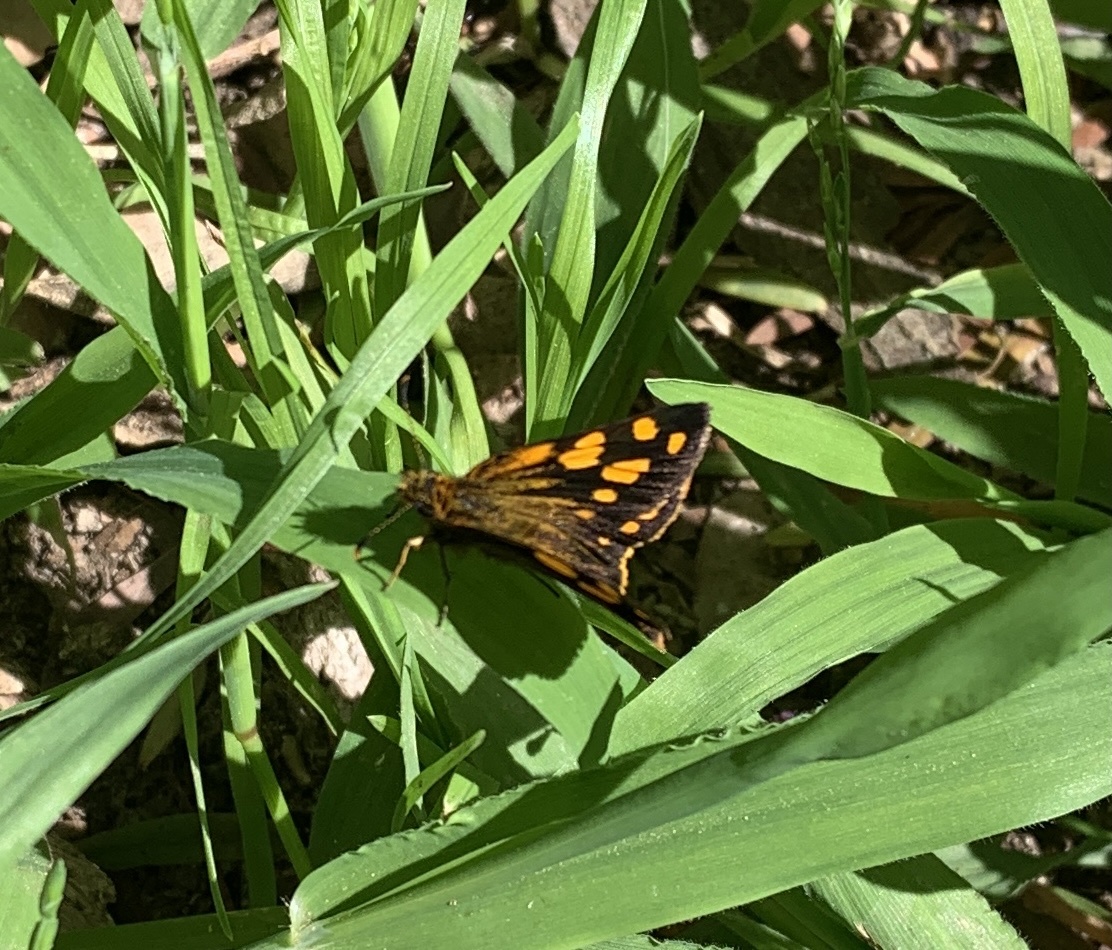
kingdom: Animalia
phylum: Arthropoda
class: Insecta
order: Lepidoptera
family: Hesperiidae
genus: Metisella
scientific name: Metisella metis
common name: Western gold-spotted sylph
